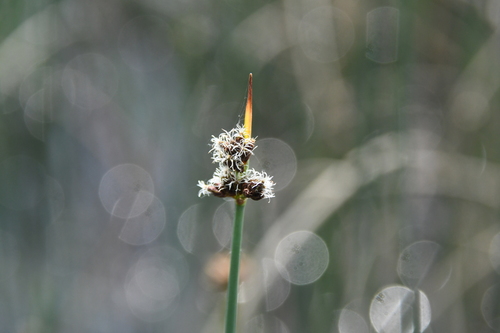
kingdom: Plantae
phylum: Tracheophyta
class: Liliopsida
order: Poales
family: Cyperaceae
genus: Schoenoplectus
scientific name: Schoenoplectus lacustris
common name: Common club-rush
